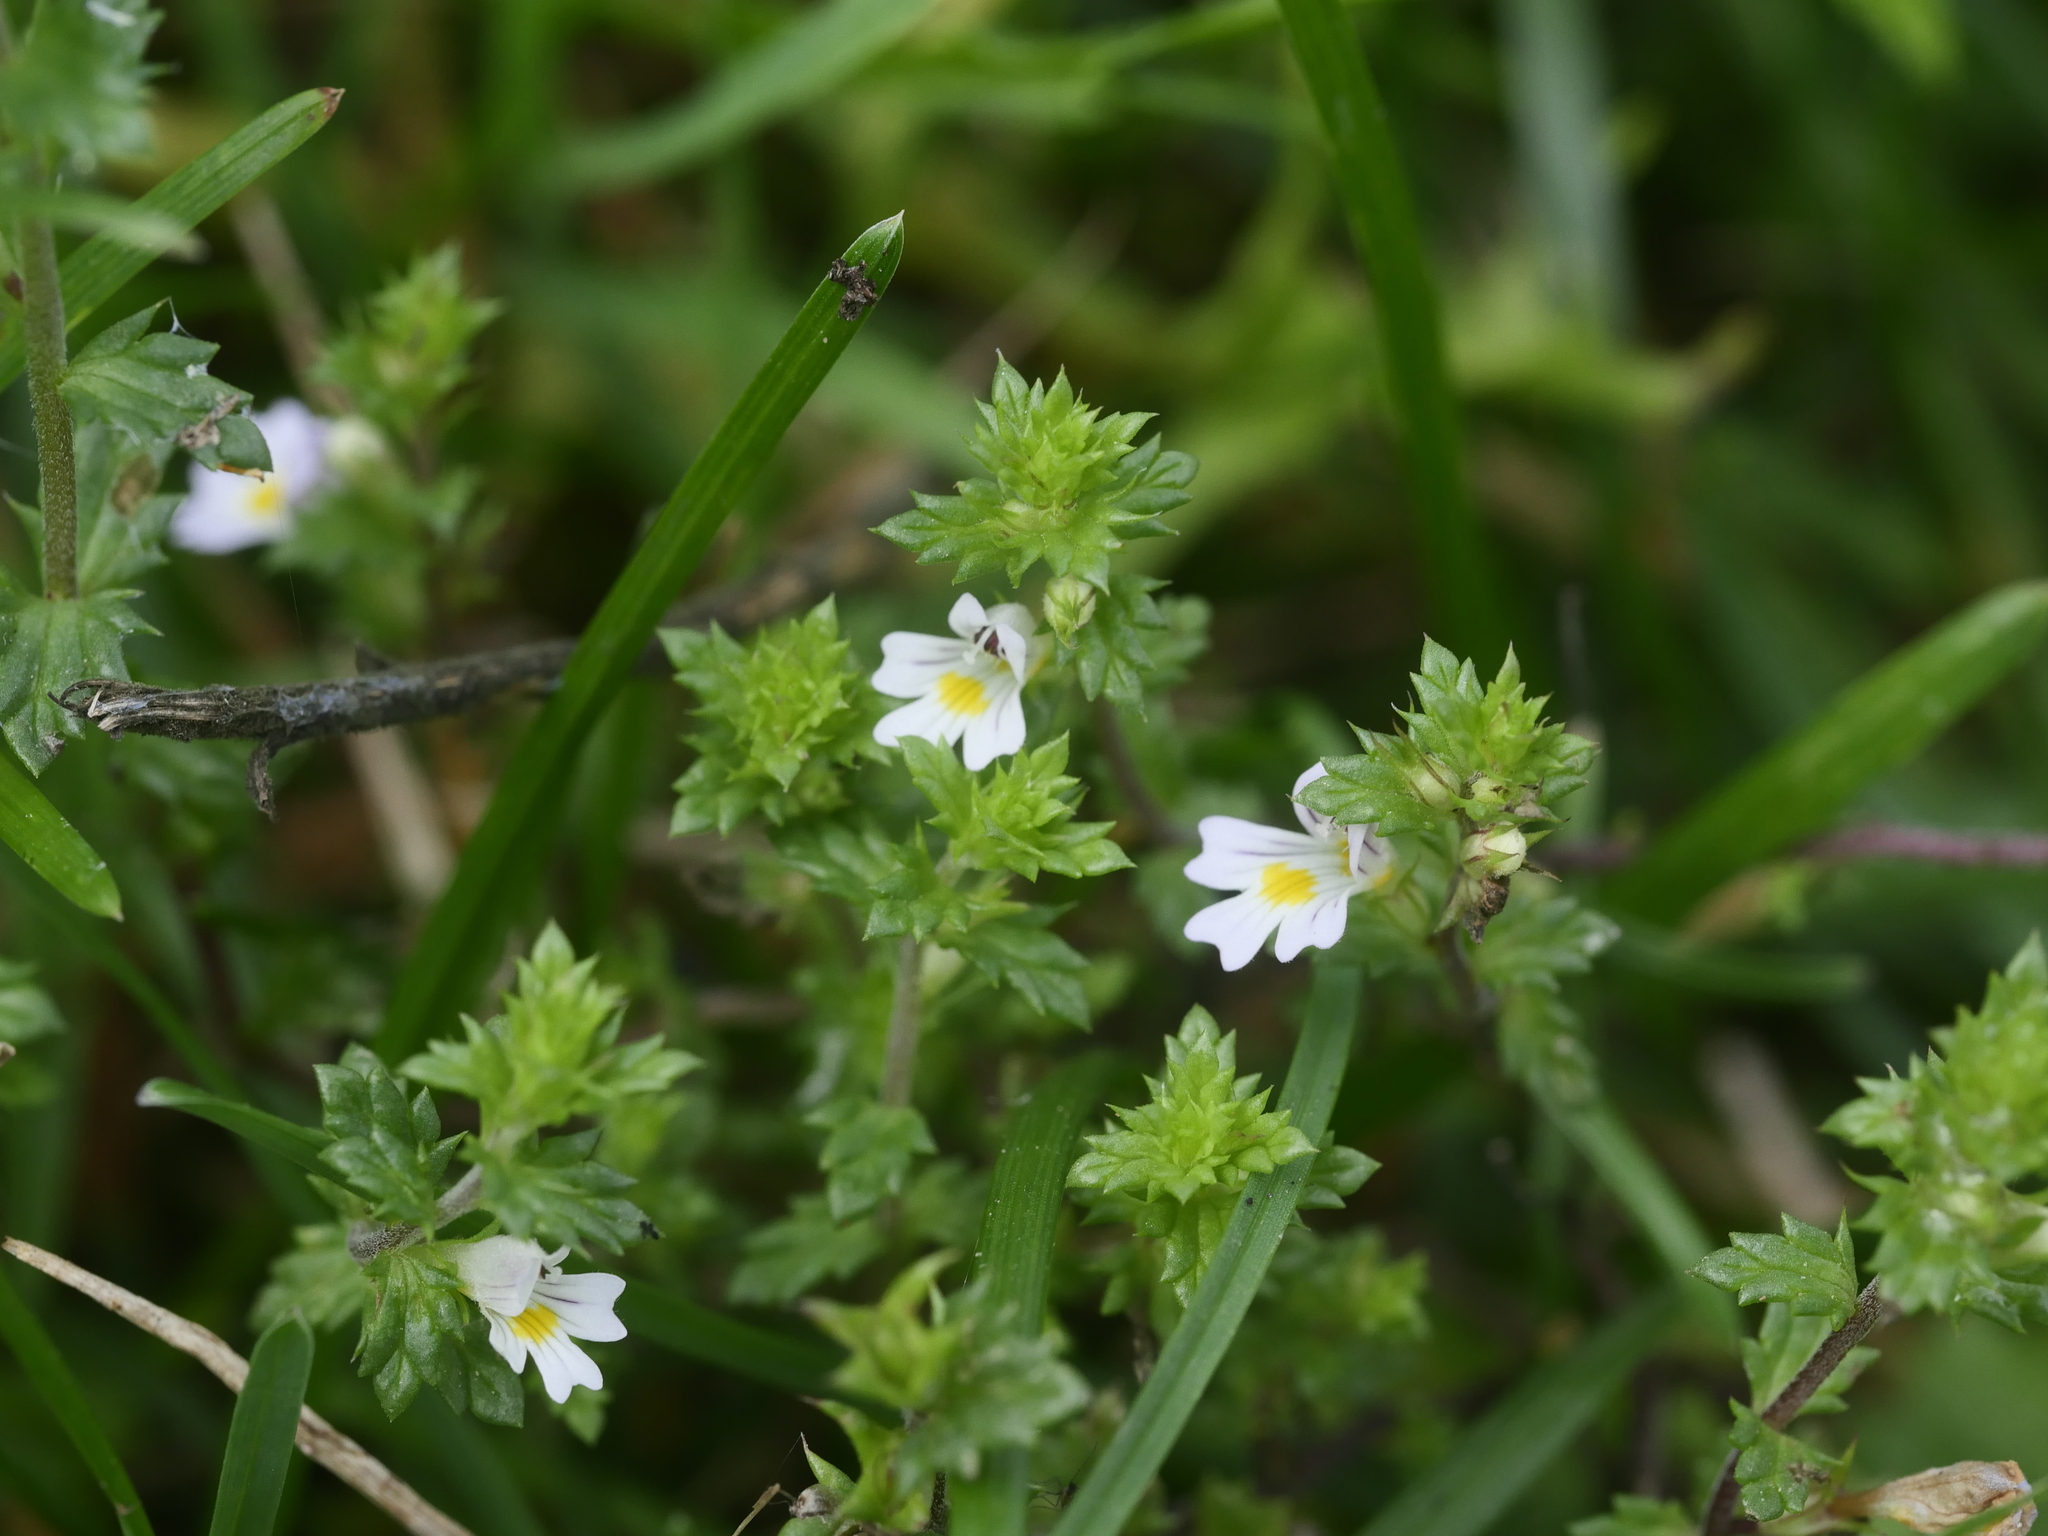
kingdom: Plantae
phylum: Tracheophyta
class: Magnoliopsida
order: Lamiales
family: Orobanchaceae
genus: Euphrasia
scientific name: Euphrasia nemorosa
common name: Common eyebright
